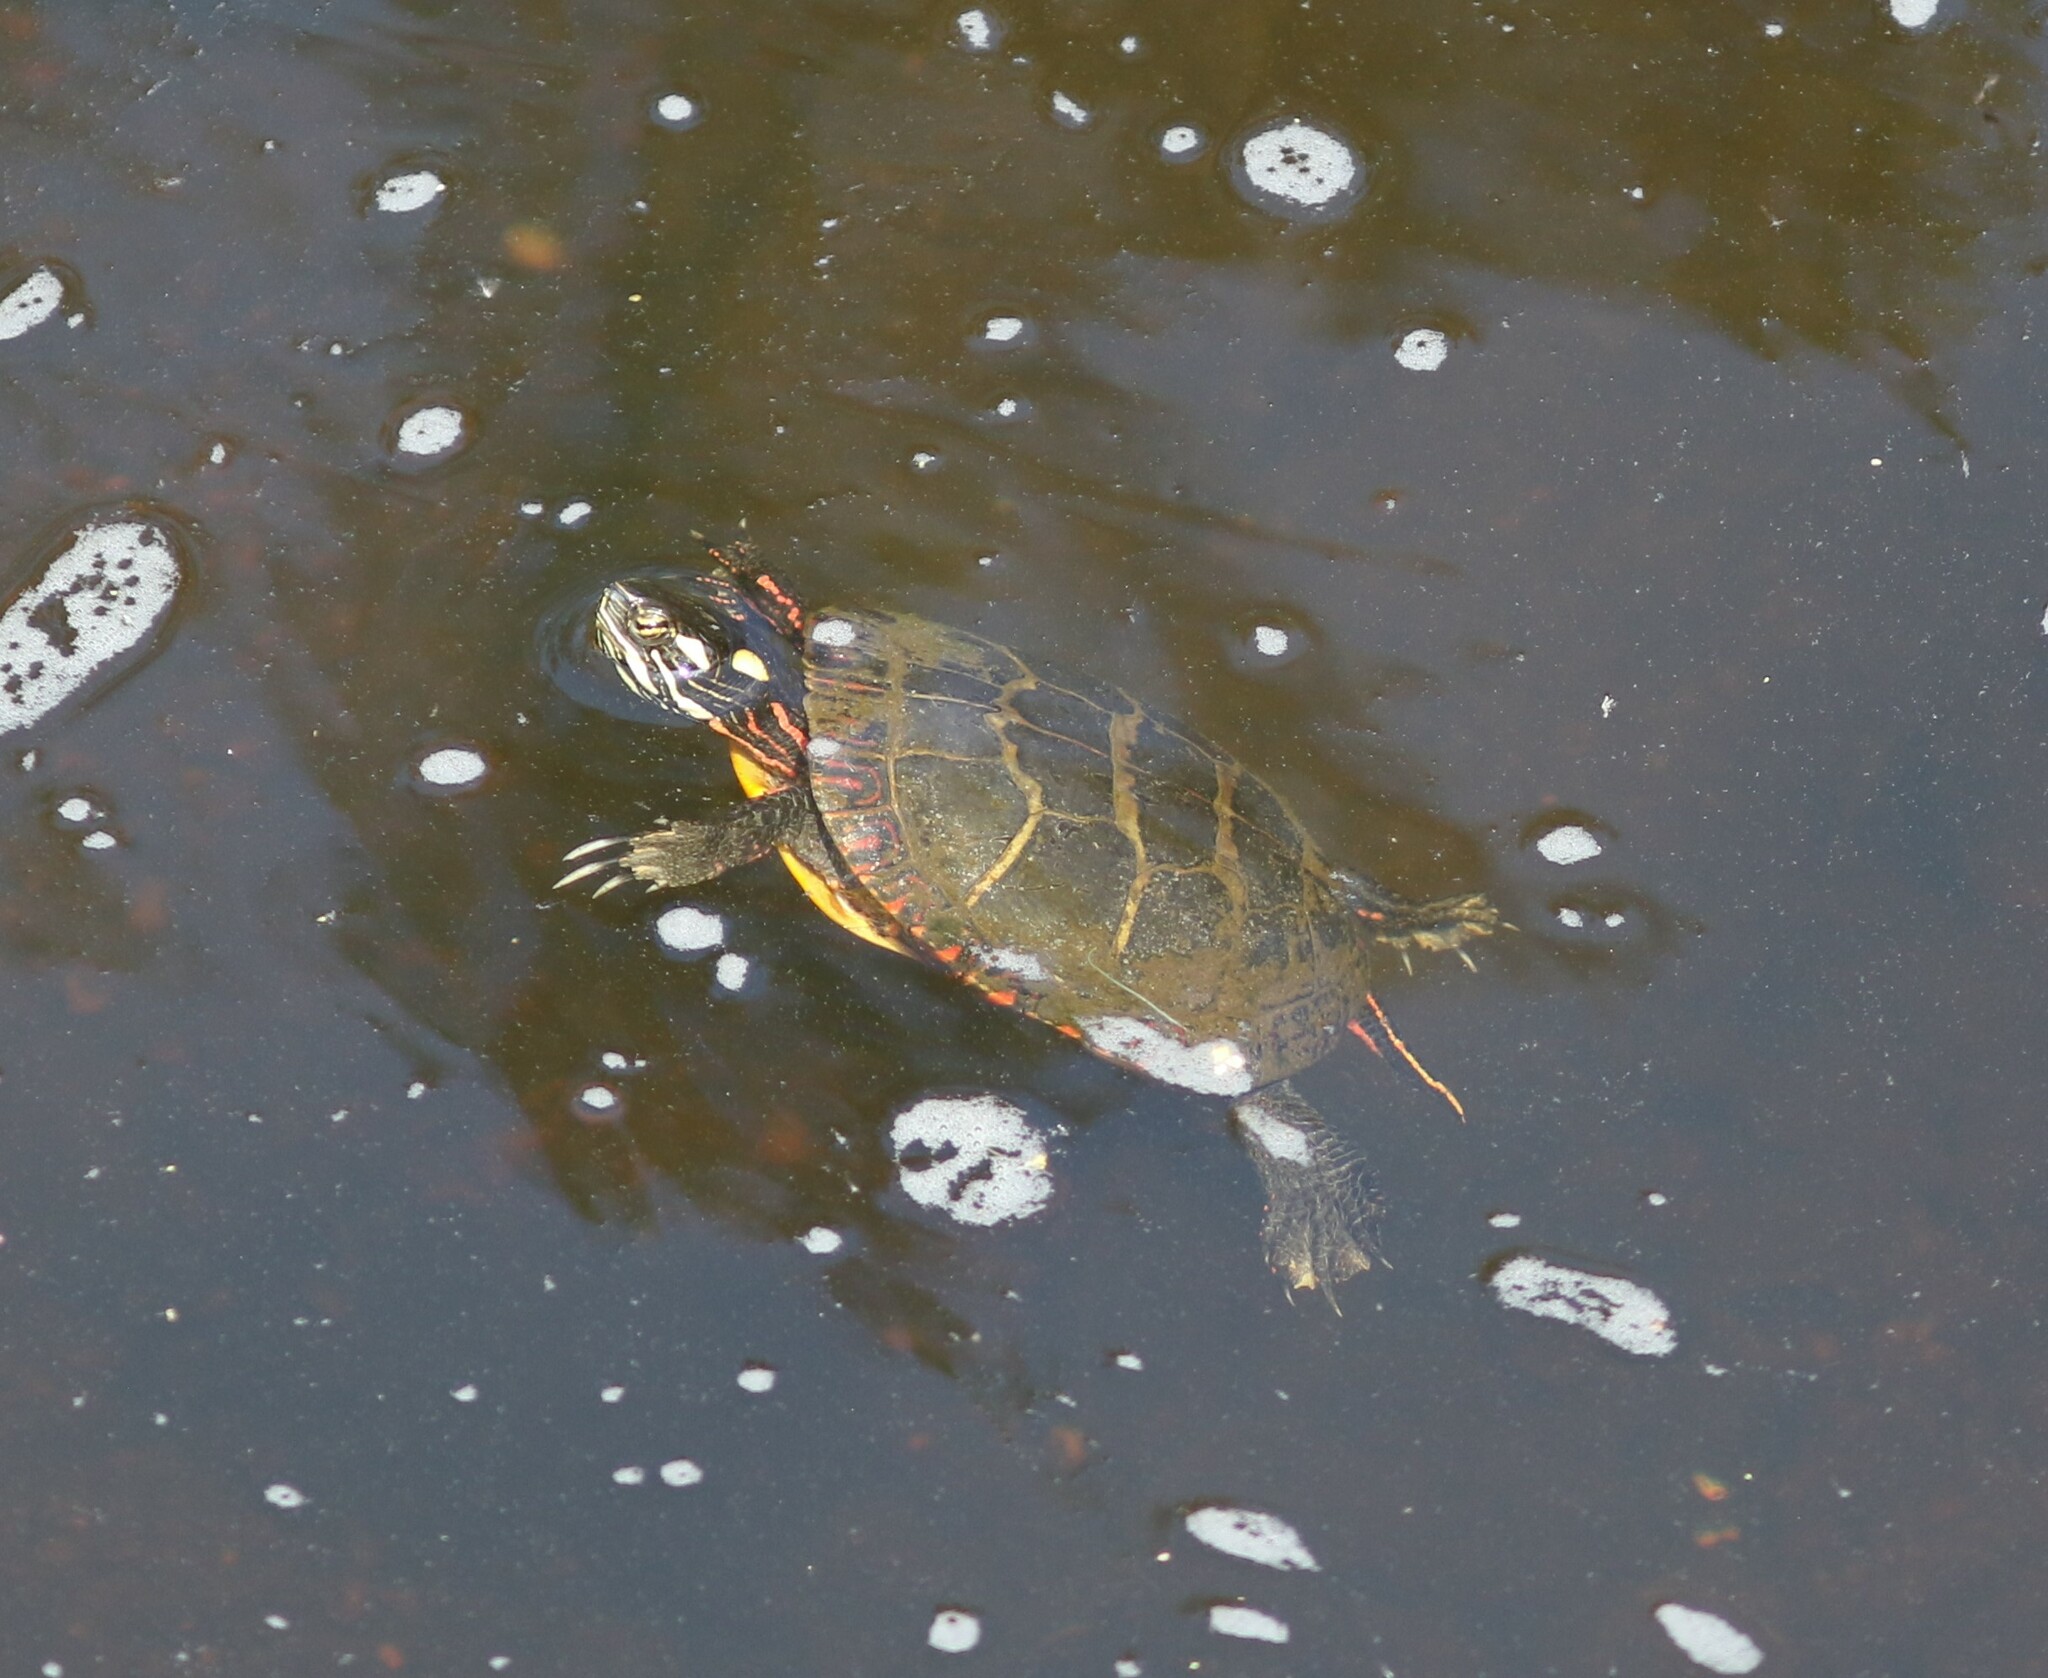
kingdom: Animalia
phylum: Chordata
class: Testudines
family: Emydidae
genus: Chrysemys
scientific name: Chrysemys picta
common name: Painted turtle
